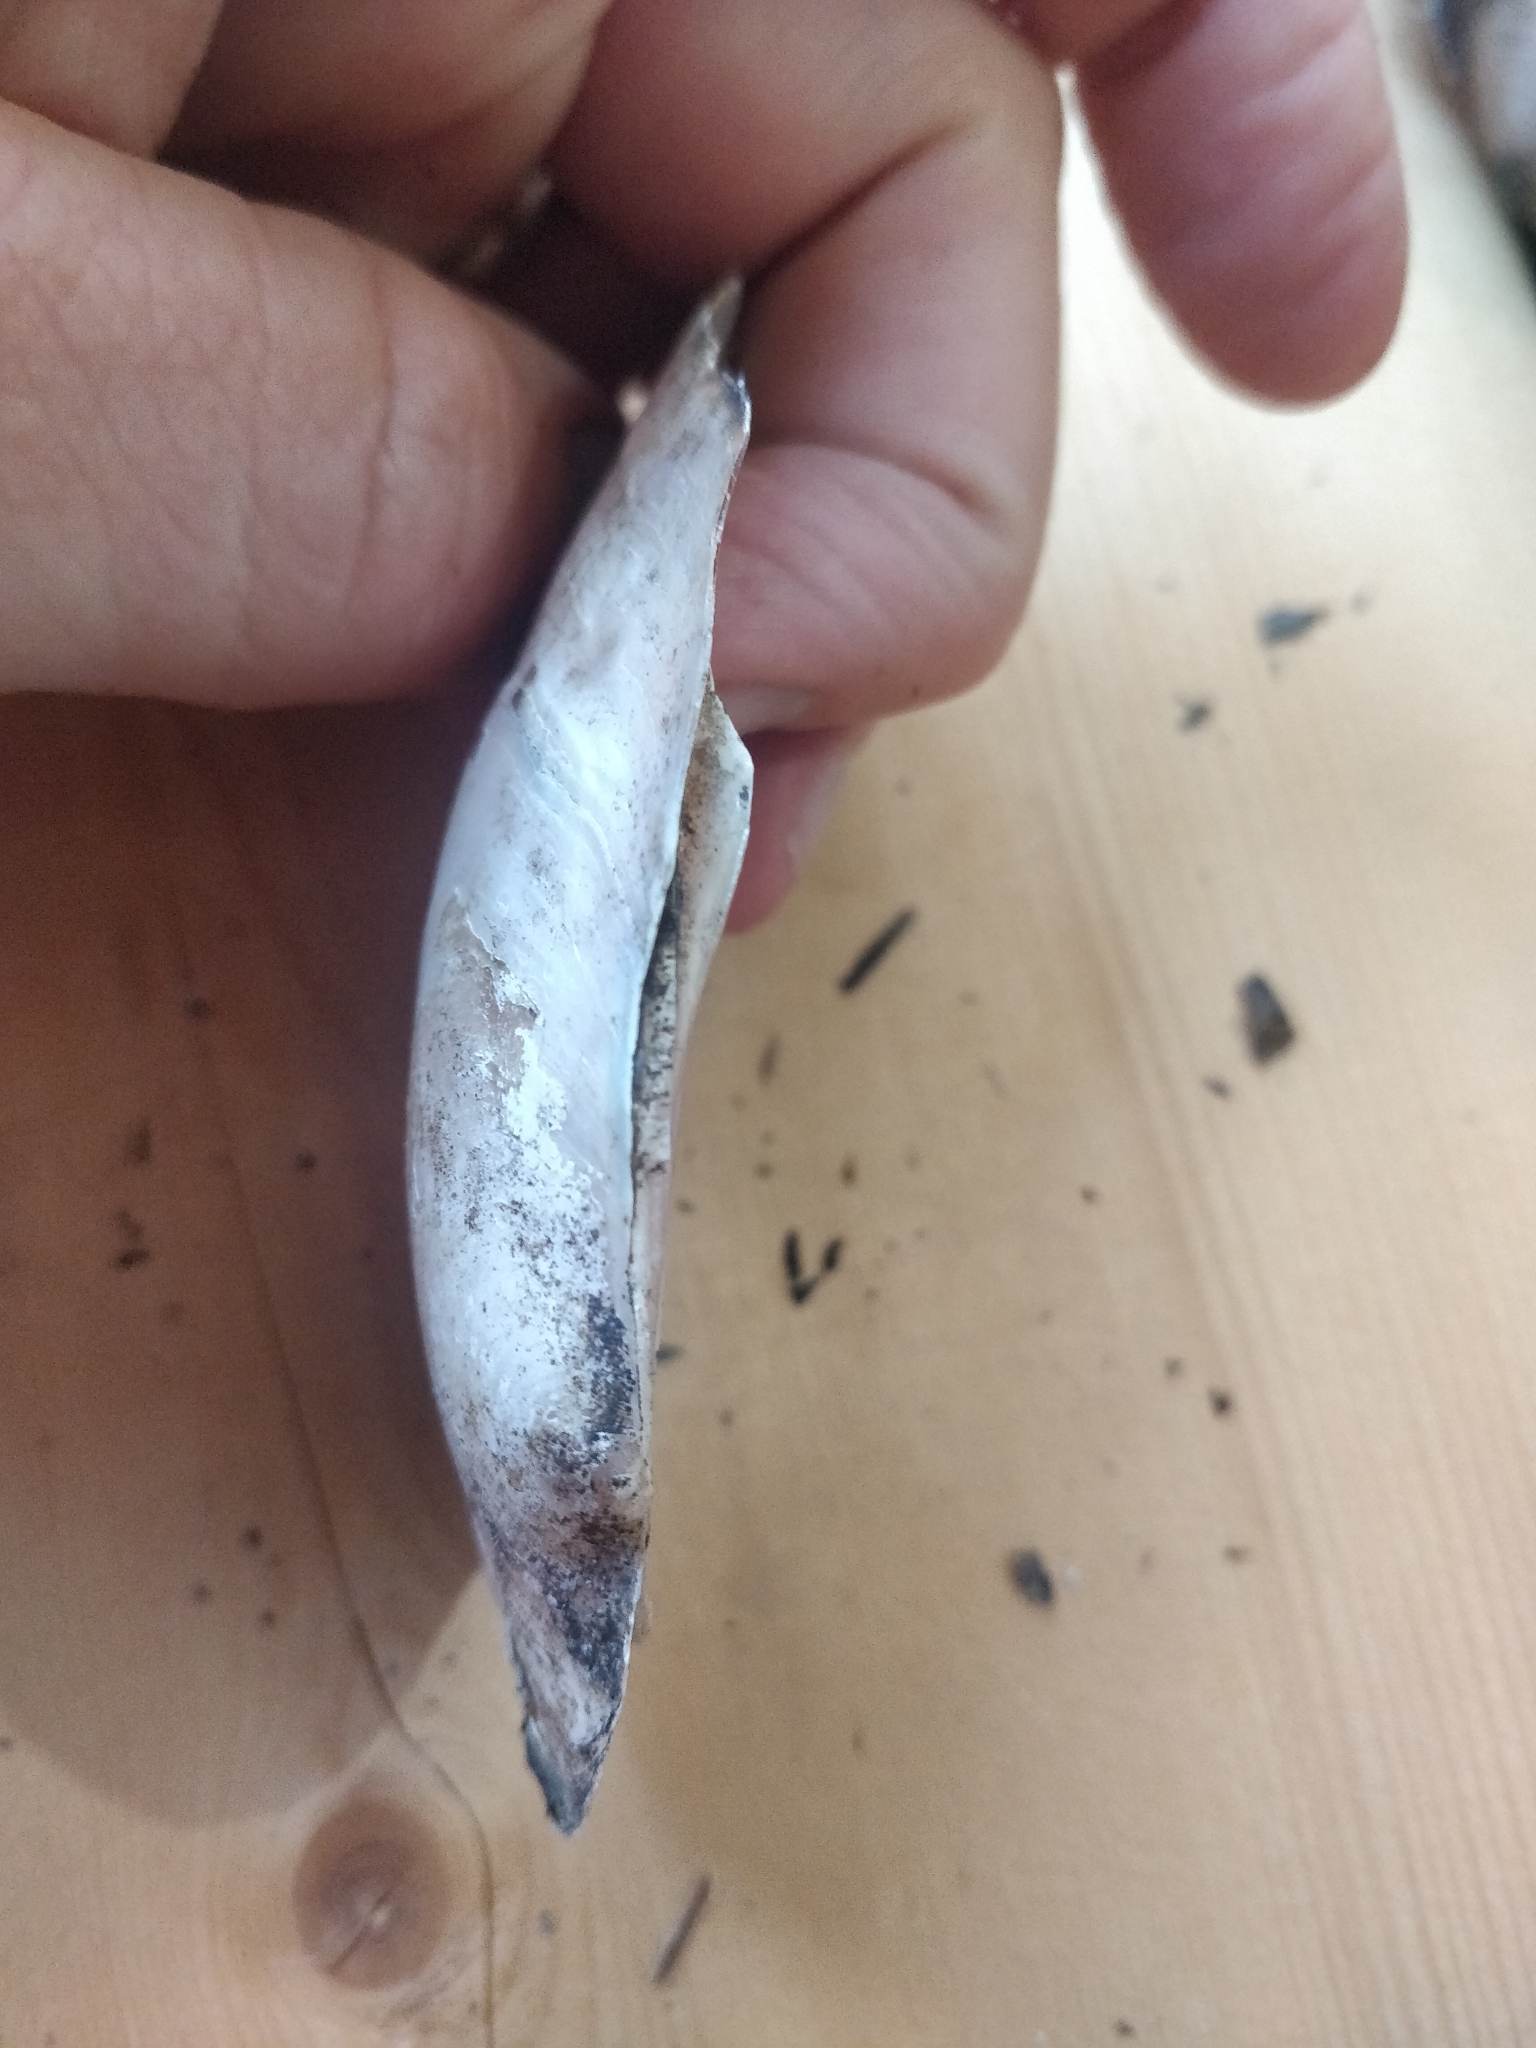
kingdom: Animalia
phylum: Mollusca
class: Bivalvia
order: Unionida
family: Unionidae
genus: Potamilus
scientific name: Potamilus ohiensis
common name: Pink papershell
